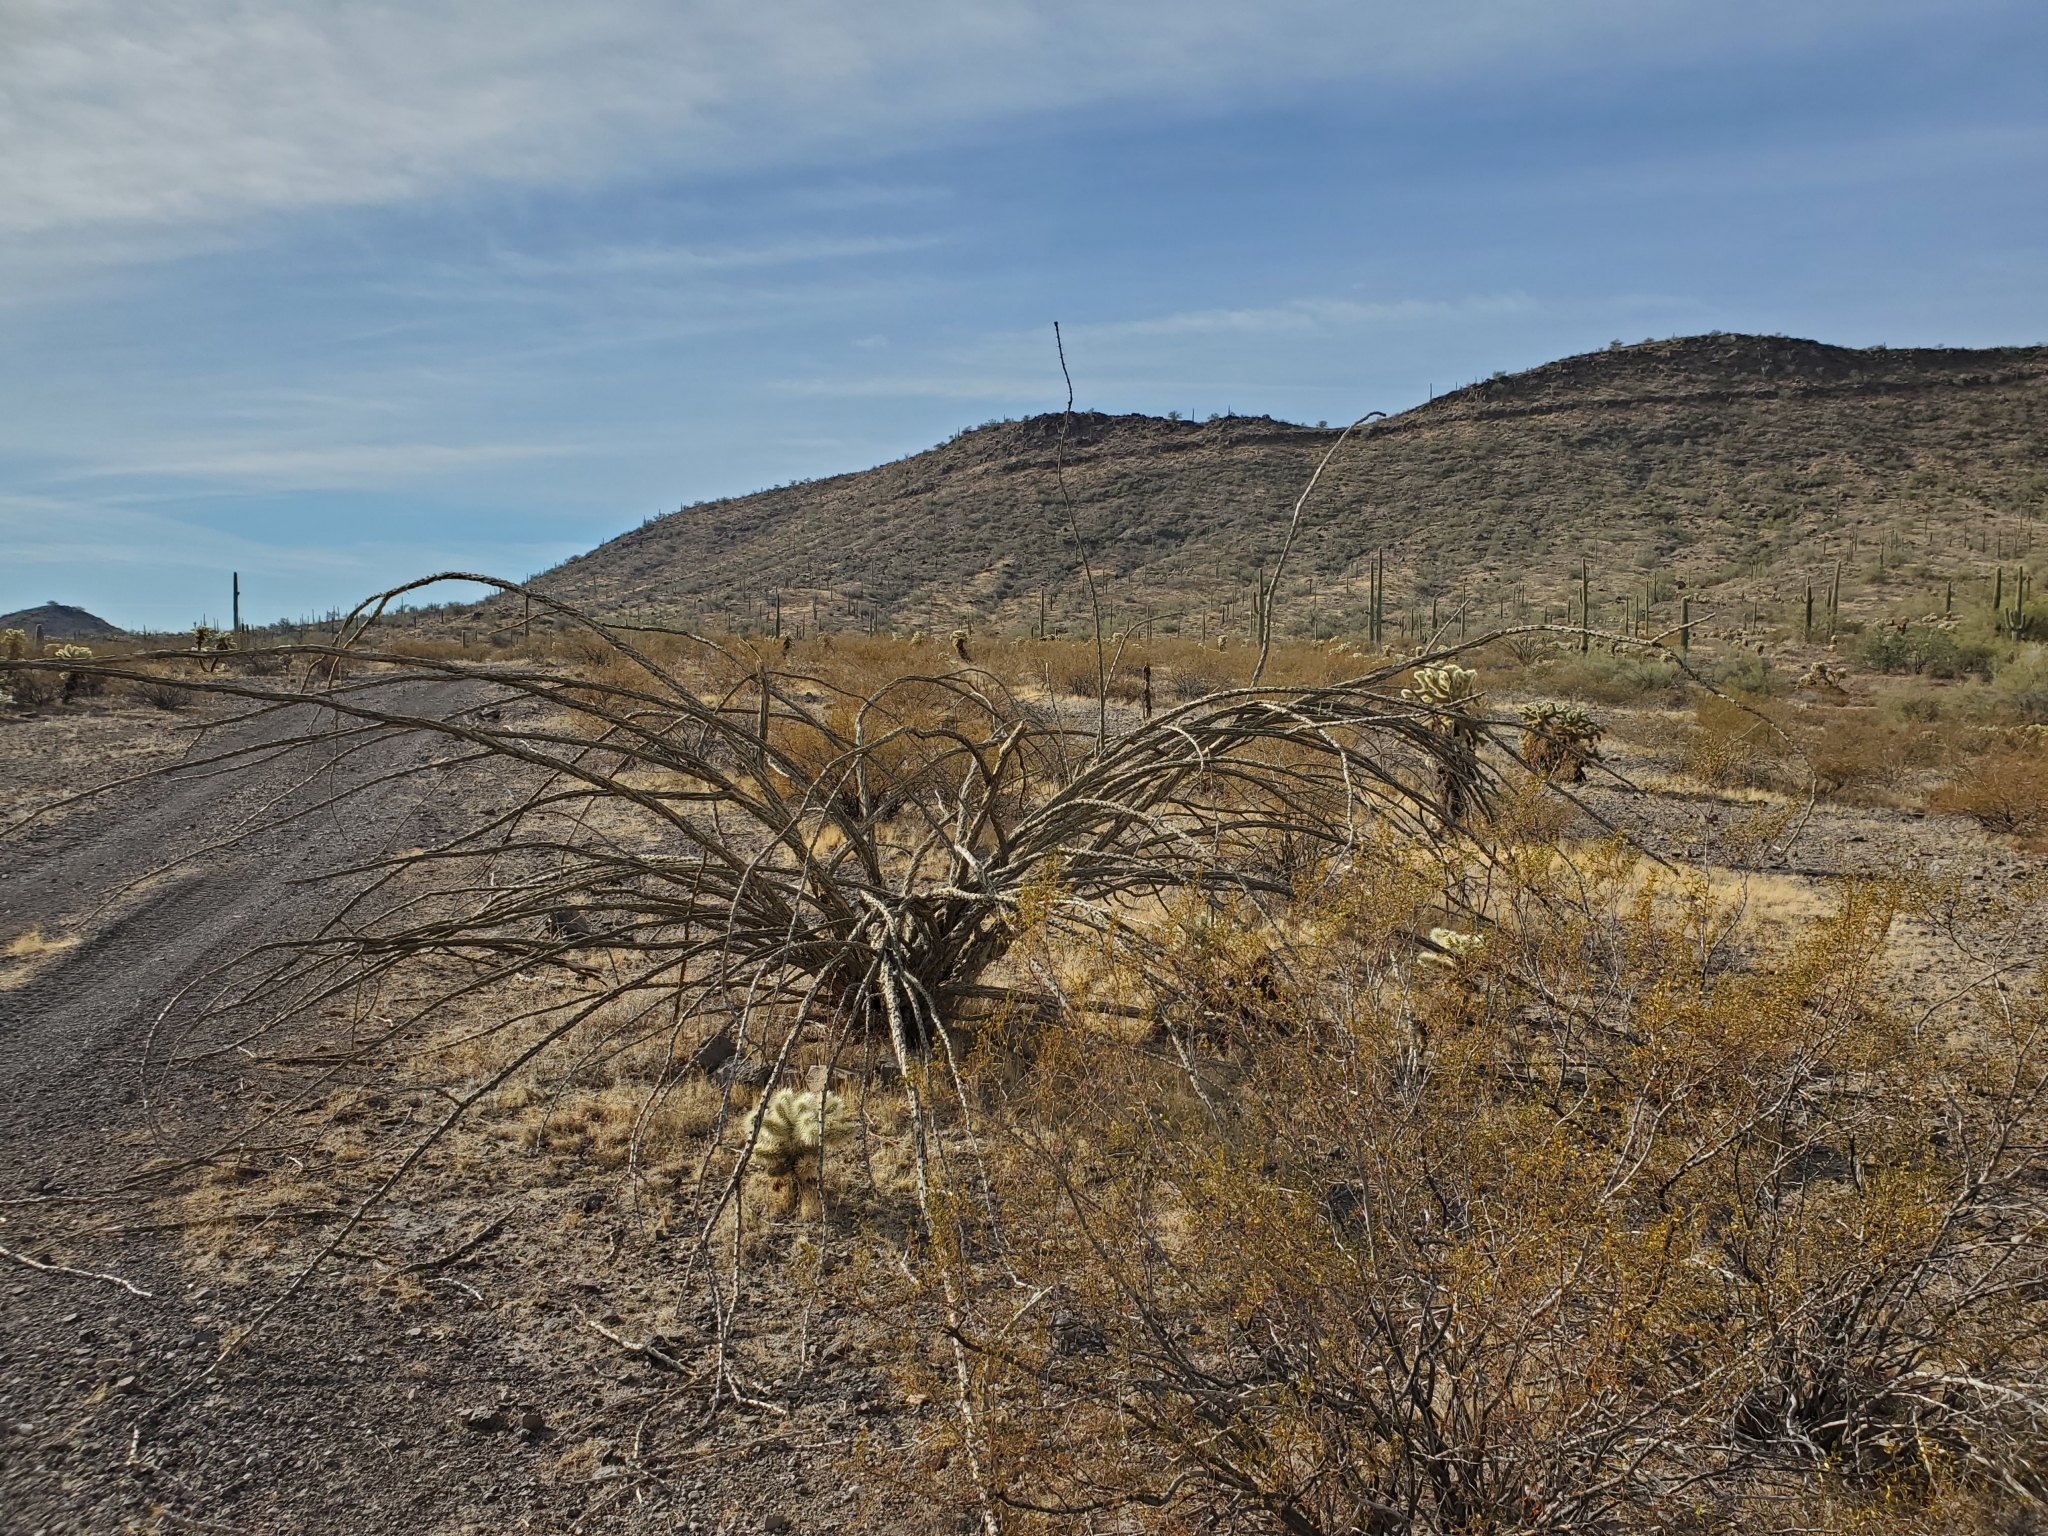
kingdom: Plantae
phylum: Tracheophyta
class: Magnoliopsida
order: Ericales
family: Fouquieriaceae
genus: Fouquieria
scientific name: Fouquieria splendens
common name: Vine-cactus
